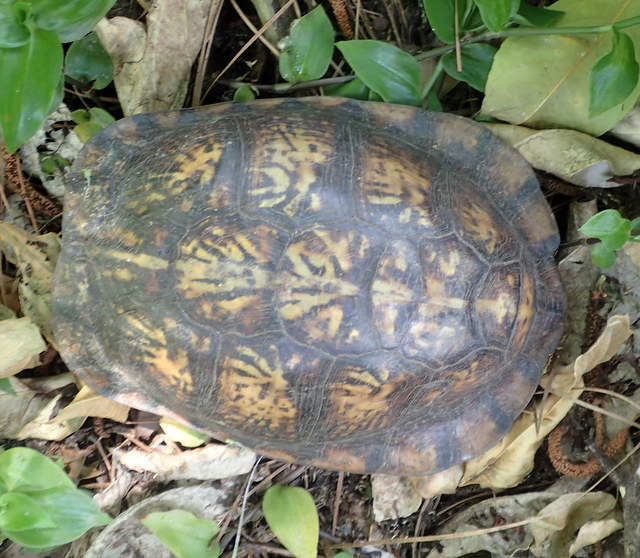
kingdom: Animalia
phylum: Chordata
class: Testudines
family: Emydidae
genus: Terrapene
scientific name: Terrapene carolina
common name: Common box turtle
